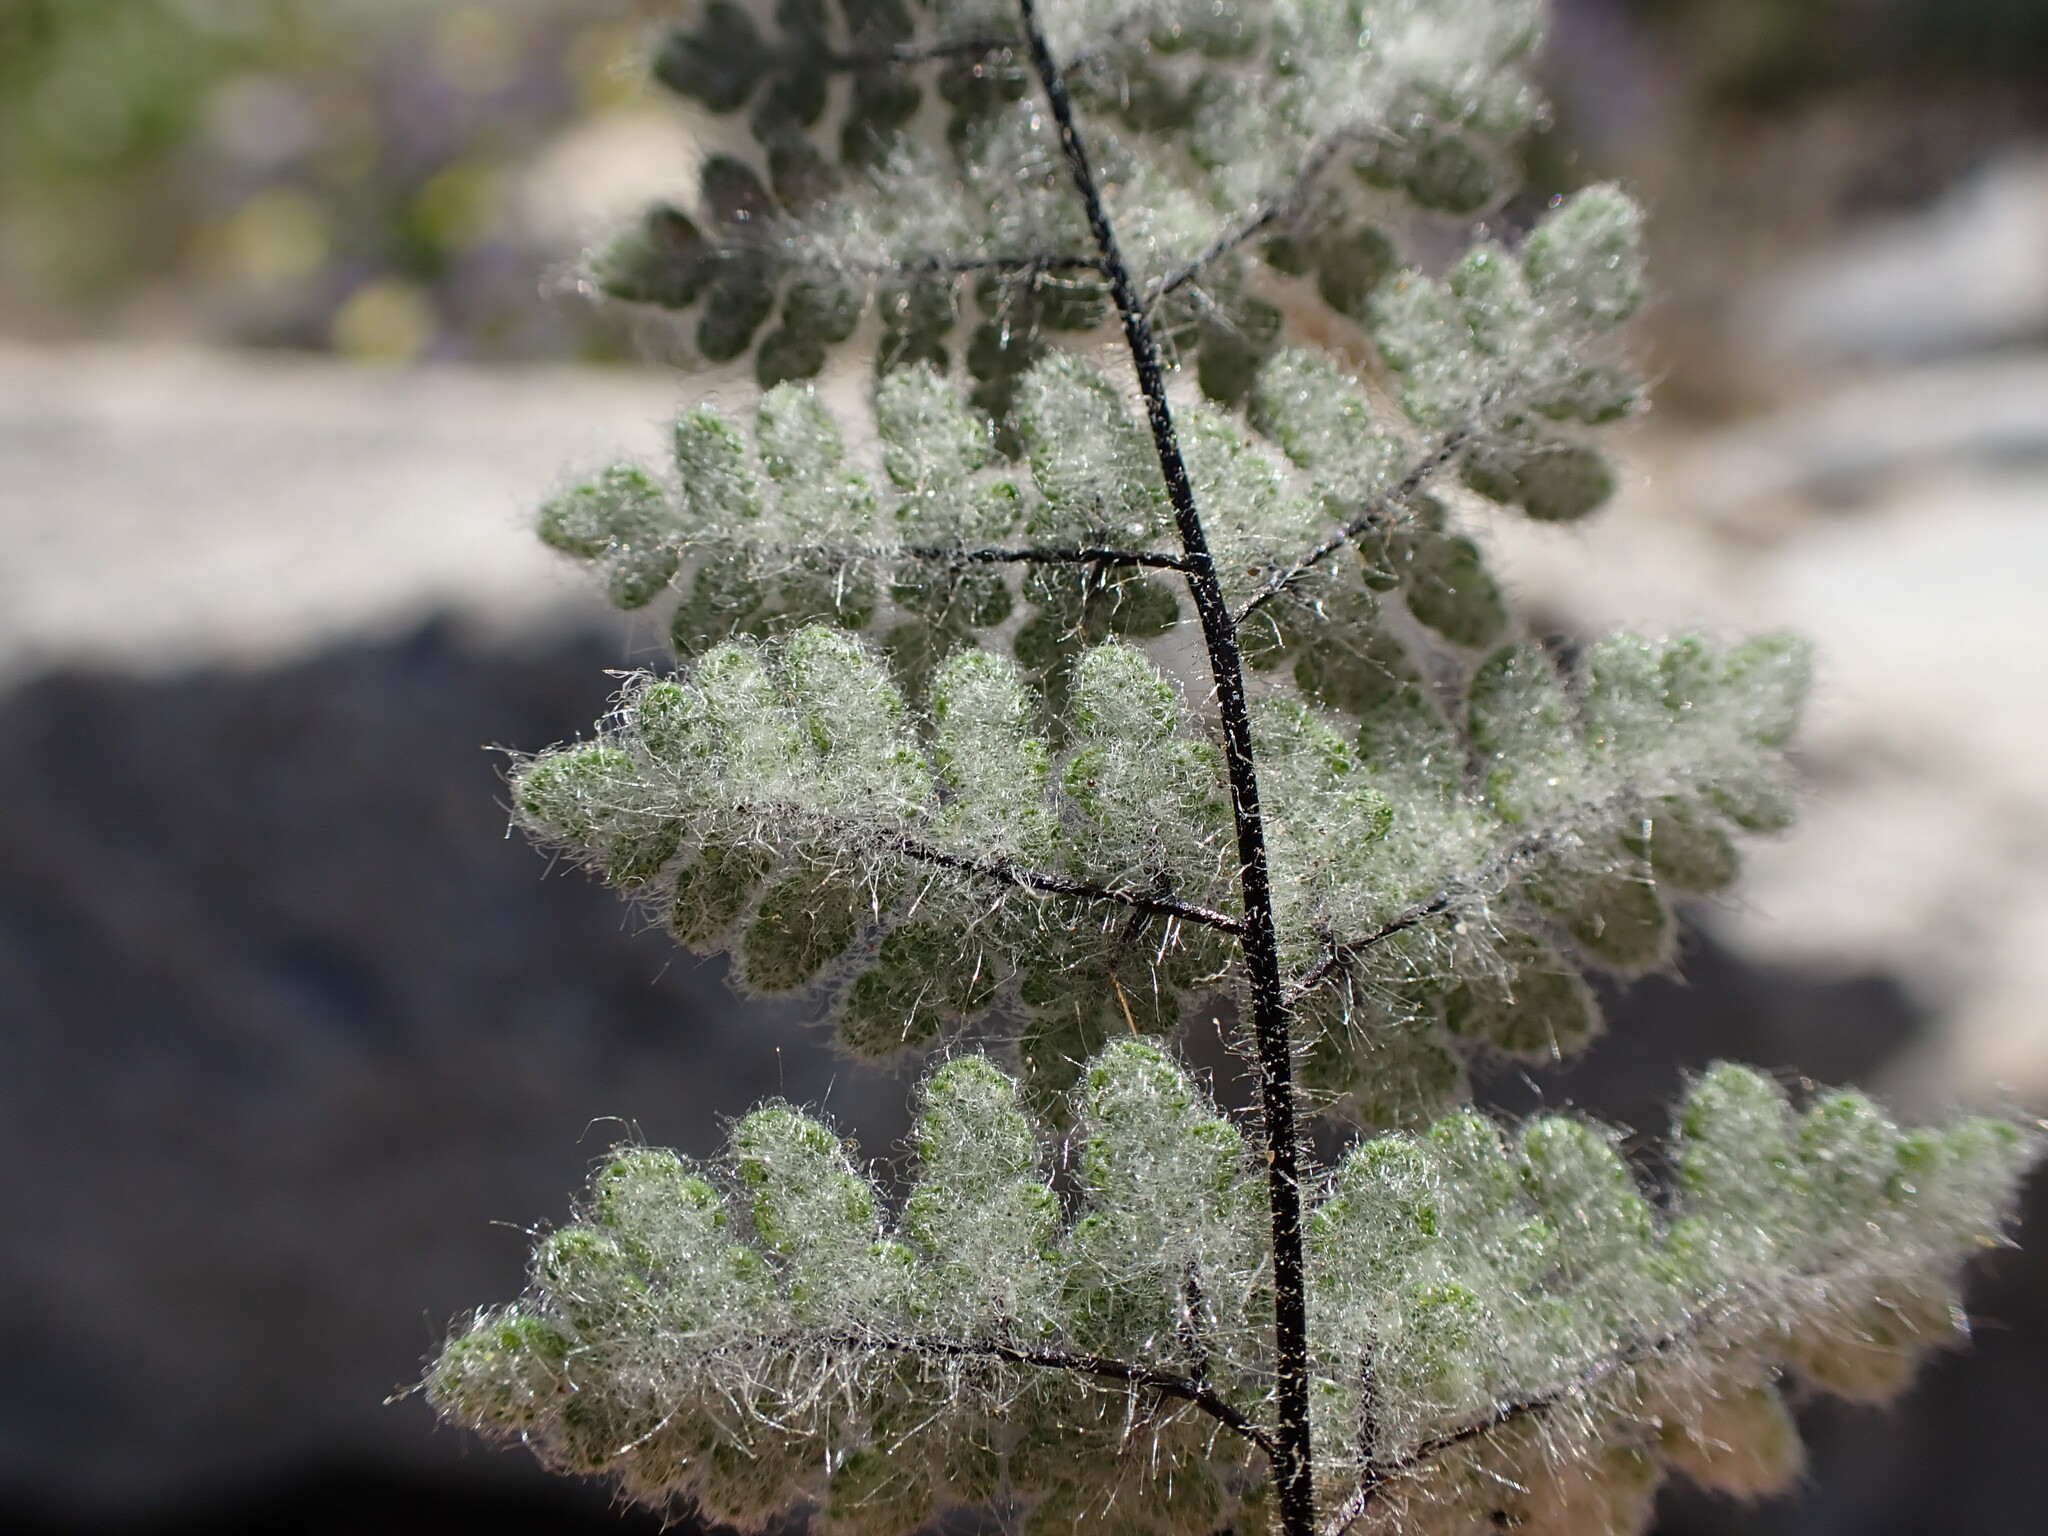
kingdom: Plantae
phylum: Tracheophyta
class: Polypodiopsida
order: Polypodiales
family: Pteridaceae
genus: Myriopteris
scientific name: Myriopteris parryi
